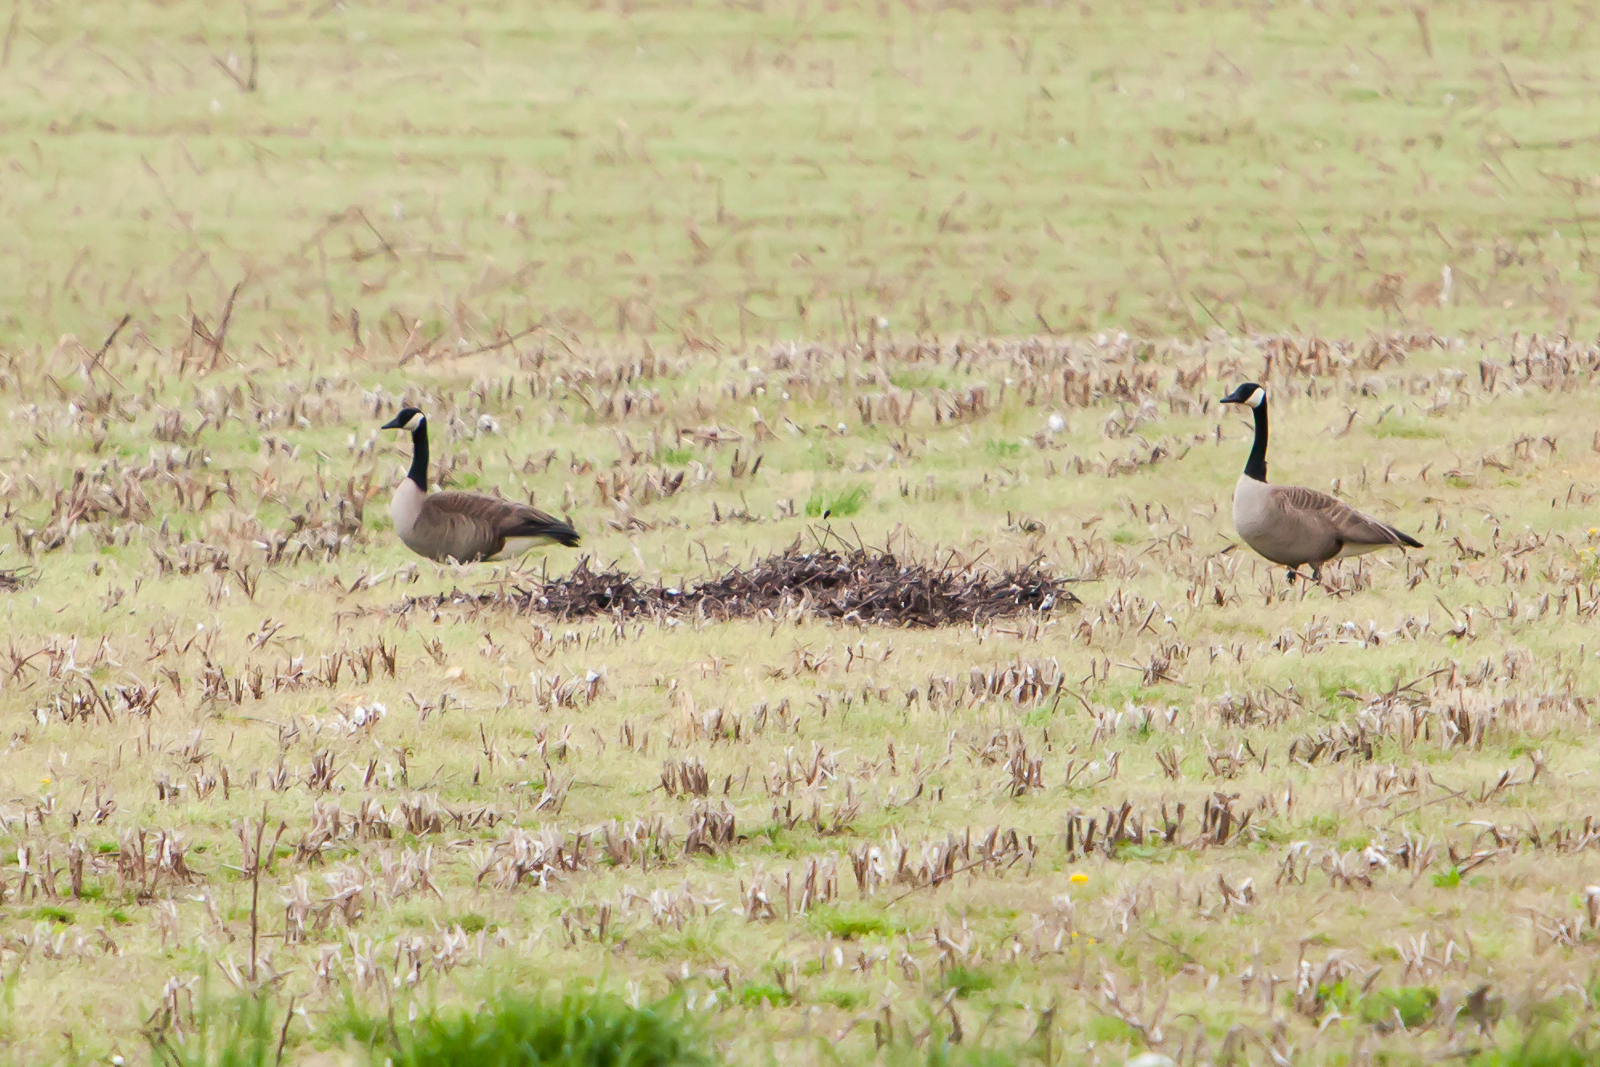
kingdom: Animalia
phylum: Chordata
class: Aves
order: Anseriformes
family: Anatidae
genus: Branta
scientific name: Branta canadensis
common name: Canada goose
